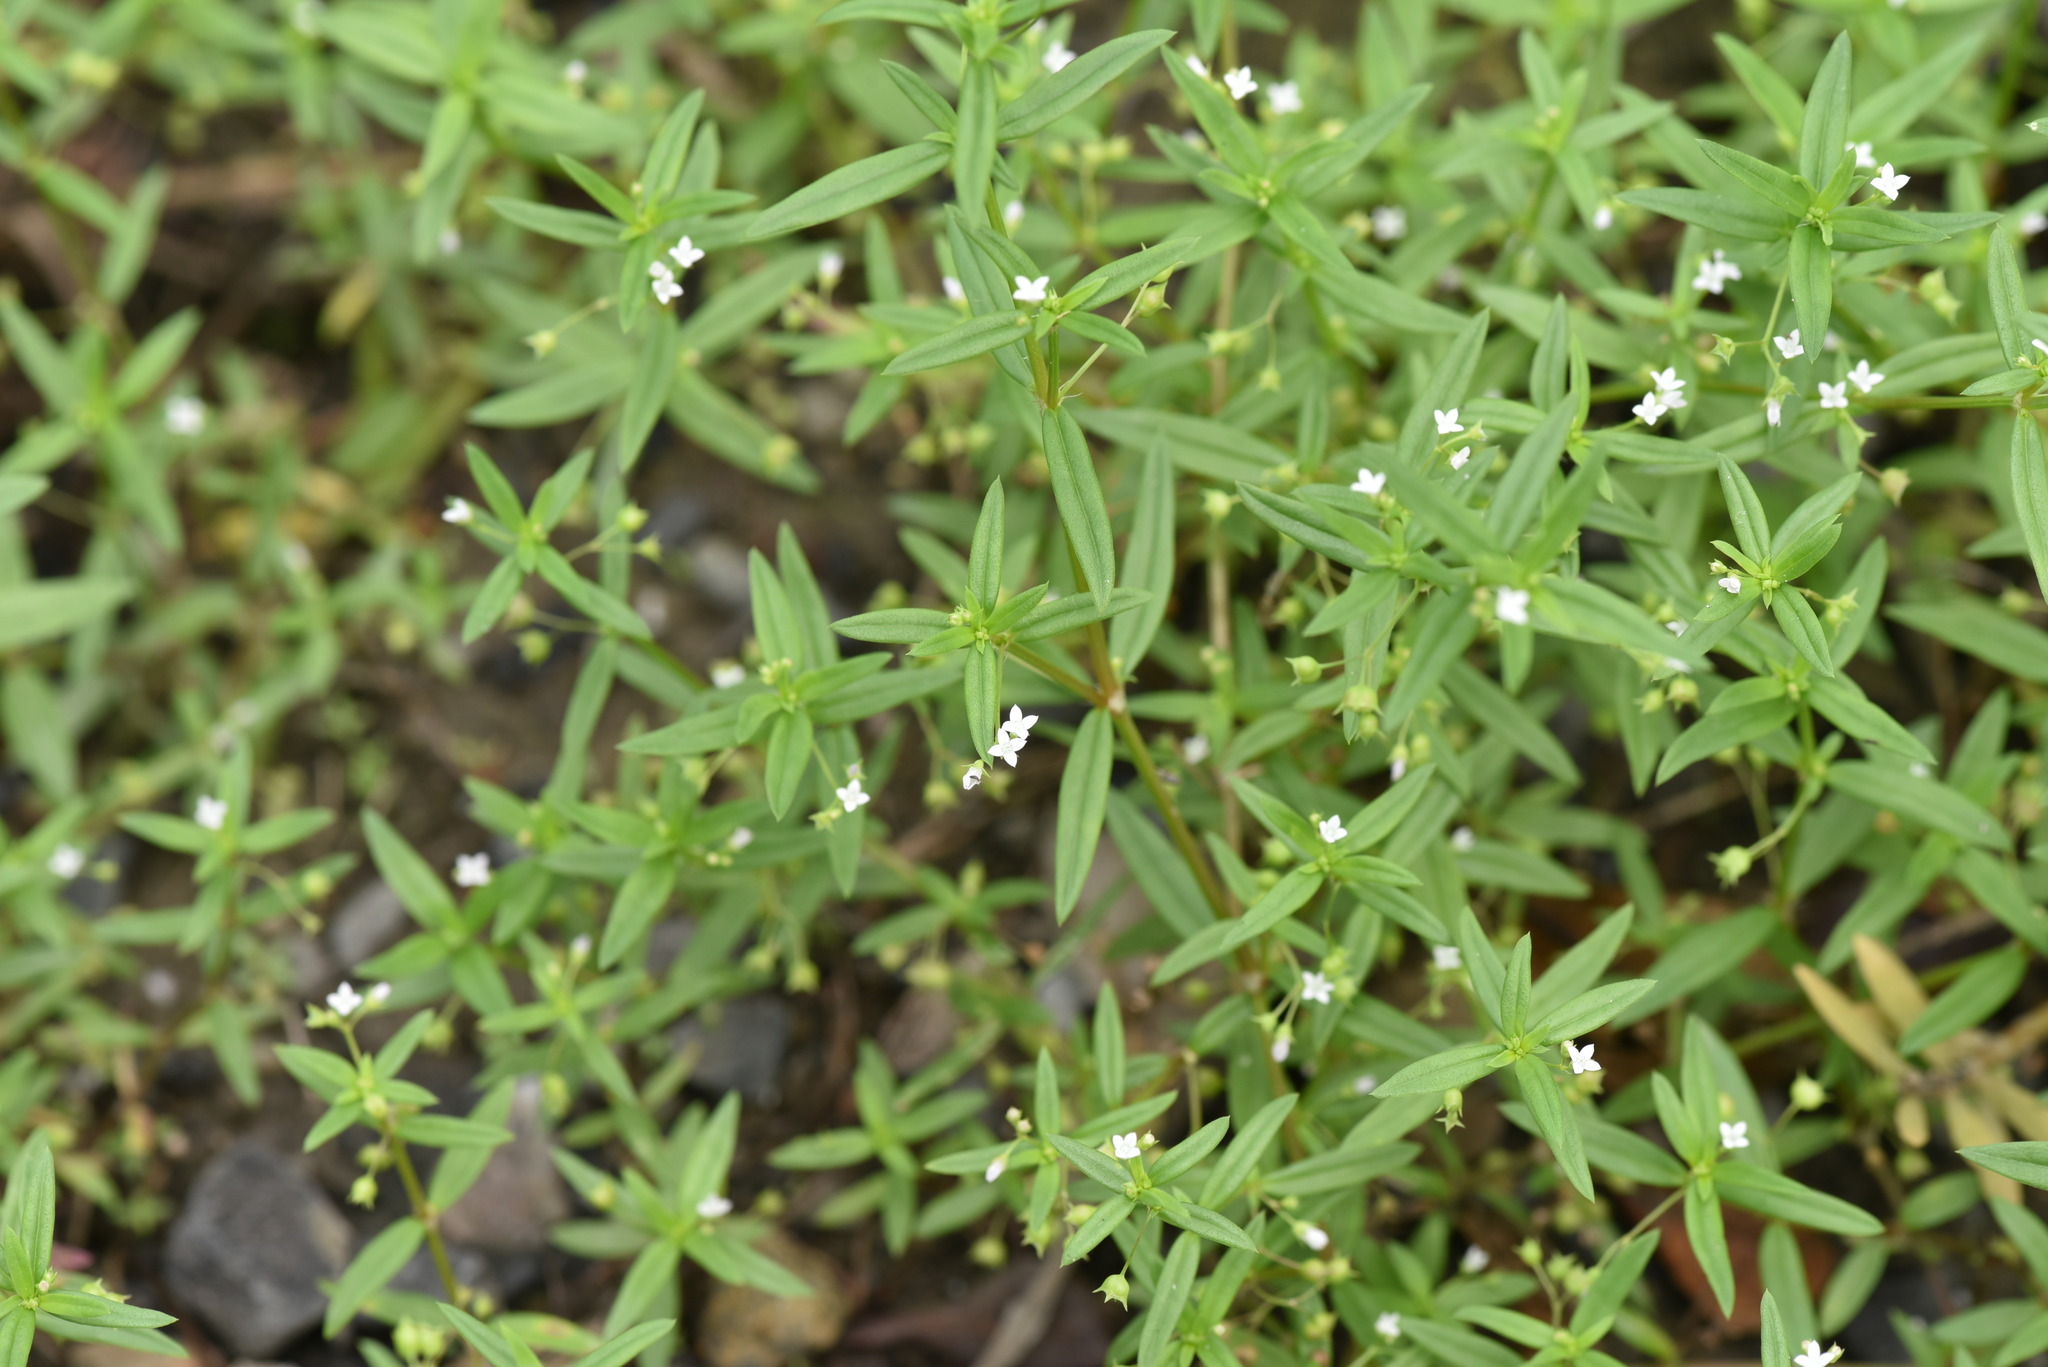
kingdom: Plantae
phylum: Tracheophyta
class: Magnoliopsida
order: Gentianales
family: Rubiaceae
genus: Oldenlandia
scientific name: Oldenlandia corymbosa
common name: Flat-top mille graines
